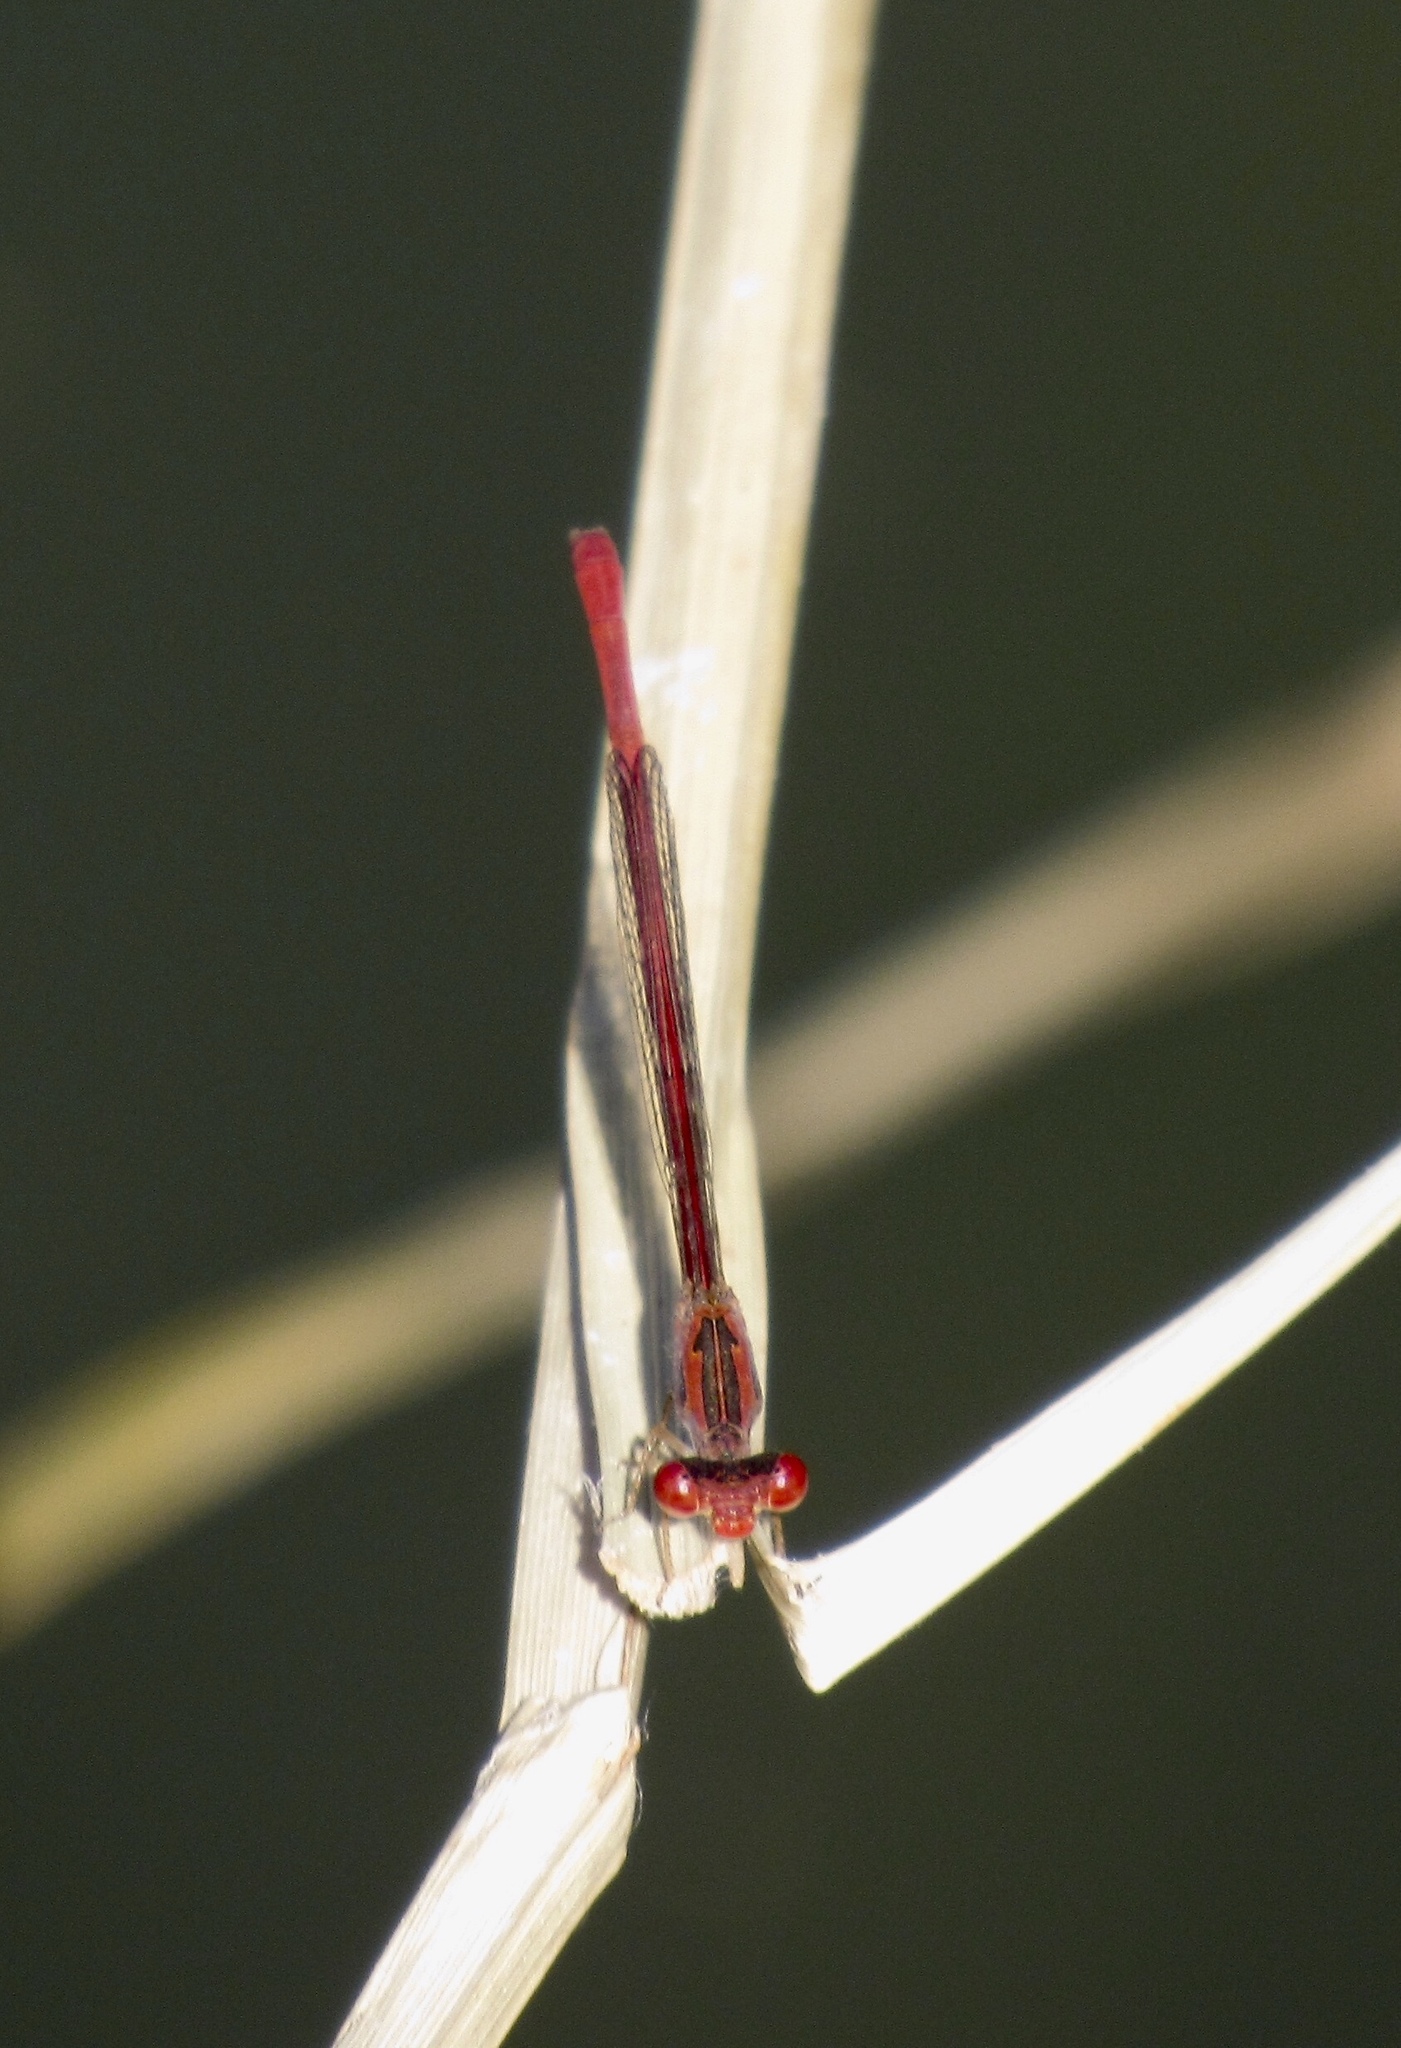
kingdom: Animalia
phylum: Arthropoda
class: Insecta
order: Odonata
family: Coenagrionidae
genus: Telebasis
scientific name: Telebasis salva
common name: Desert firetail
